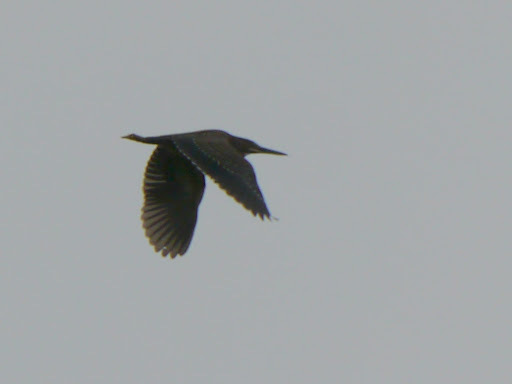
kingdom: Animalia
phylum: Chordata
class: Aves
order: Pelecaniformes
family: Ardeidae
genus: Butorides
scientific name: Butorides striata
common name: Striated heron
